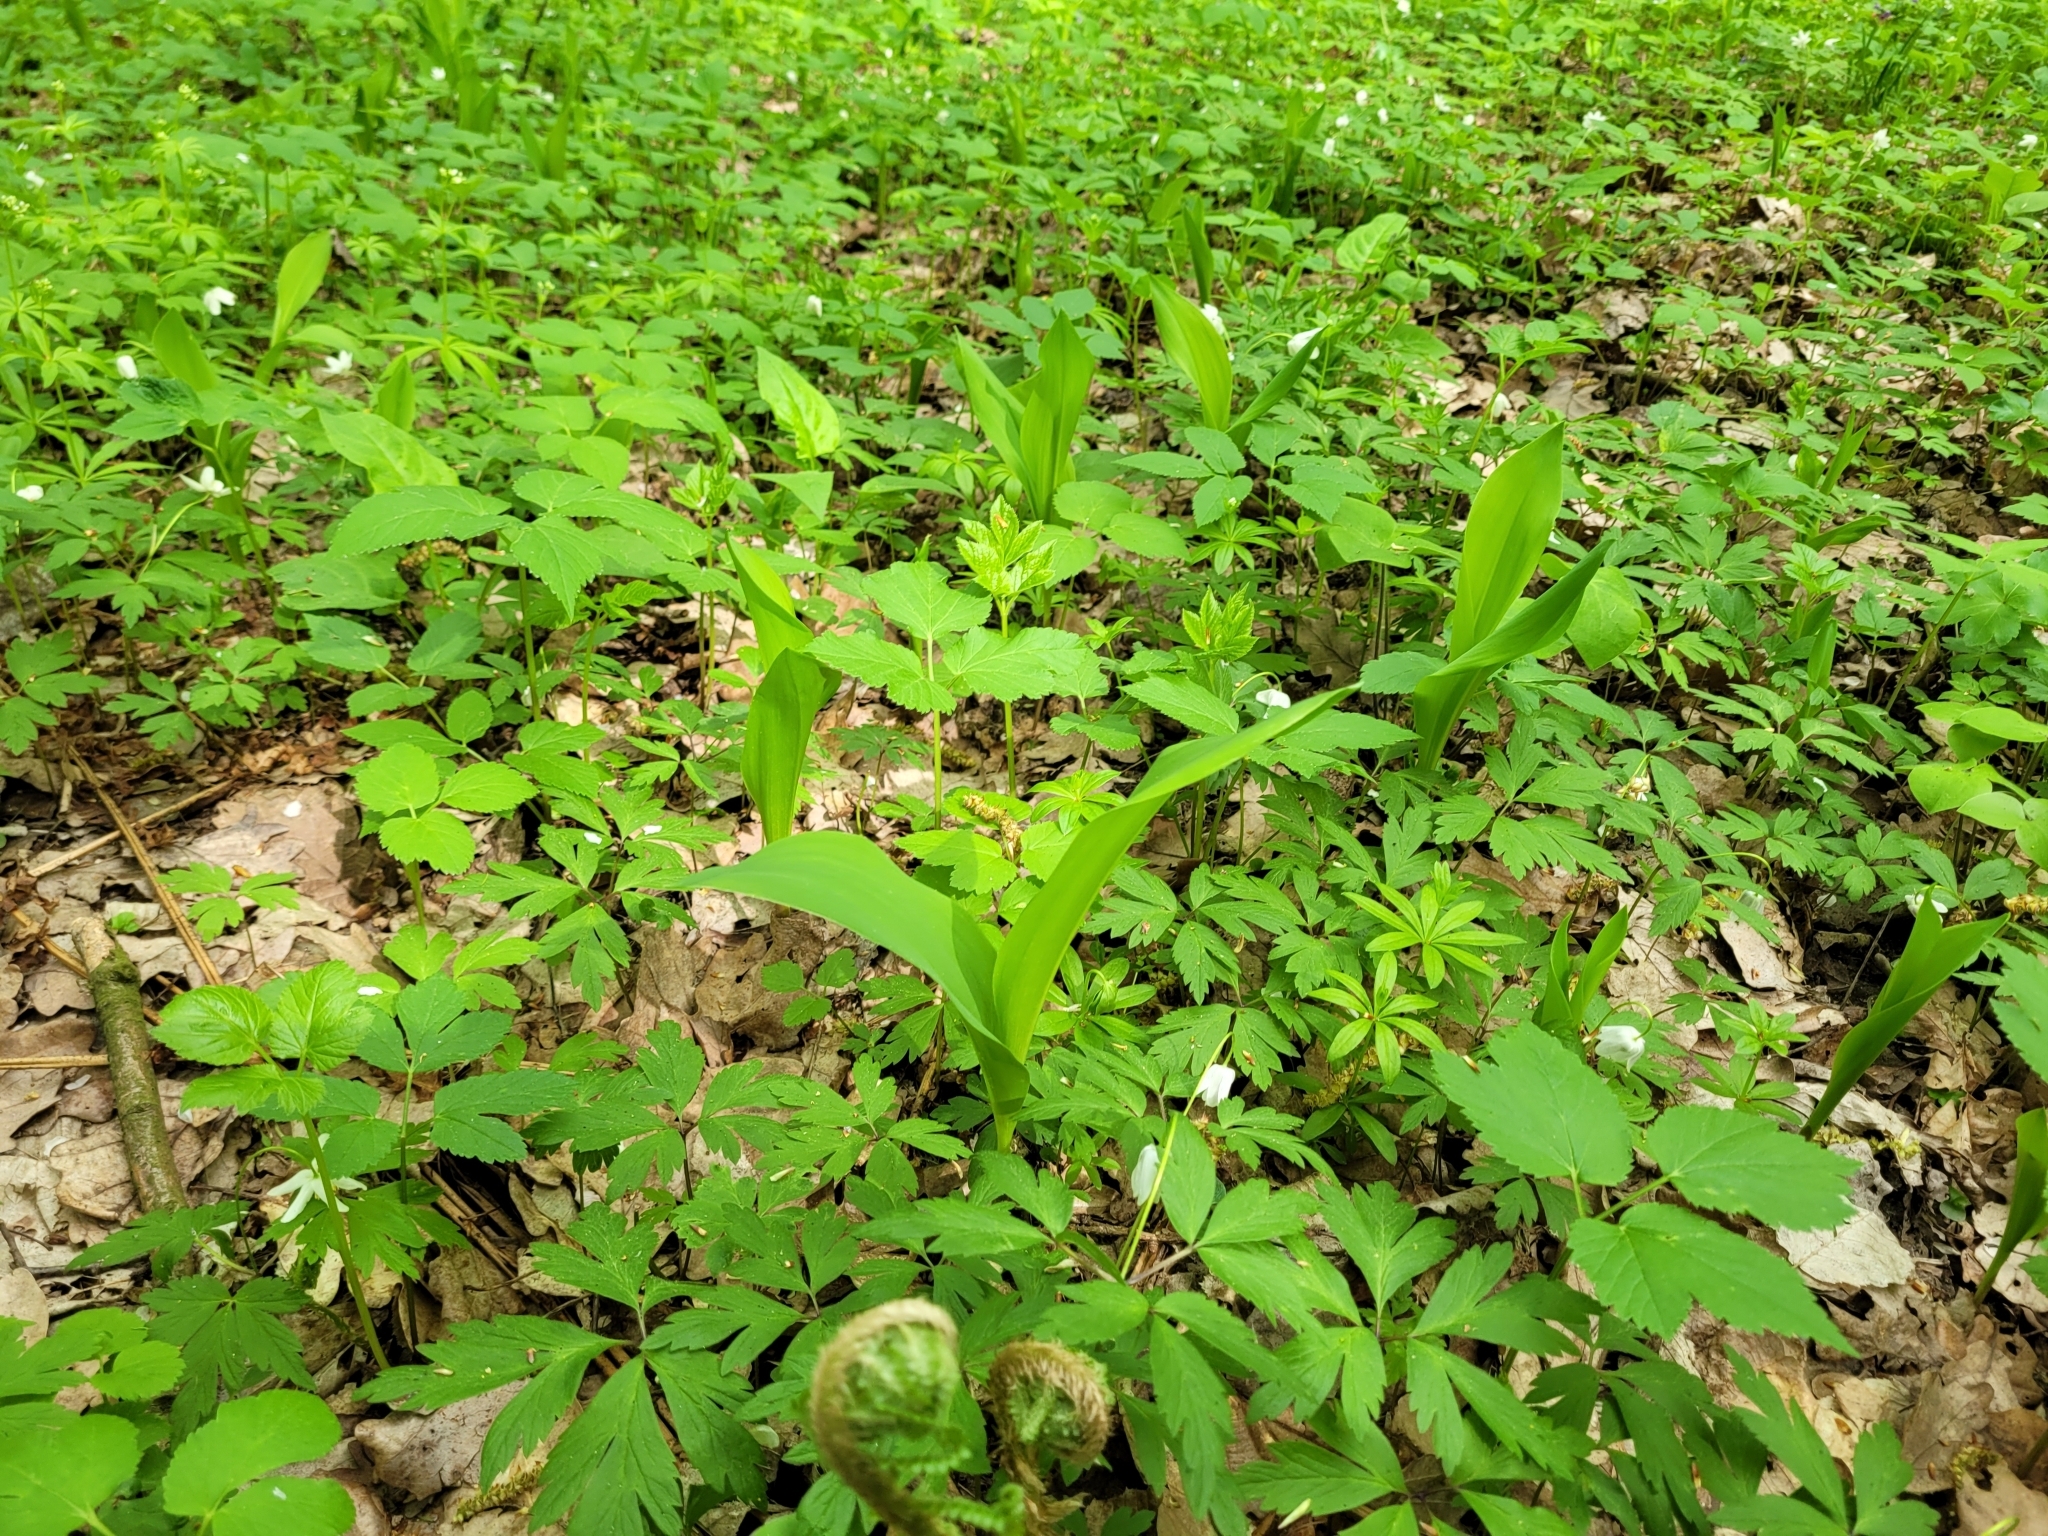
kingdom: Plantae
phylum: Tracheophyta
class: Liliopsida
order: Asparagales
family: Asparagaceae
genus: Convallaria
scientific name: Convallaria majalis
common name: Lily-of-the-valley
